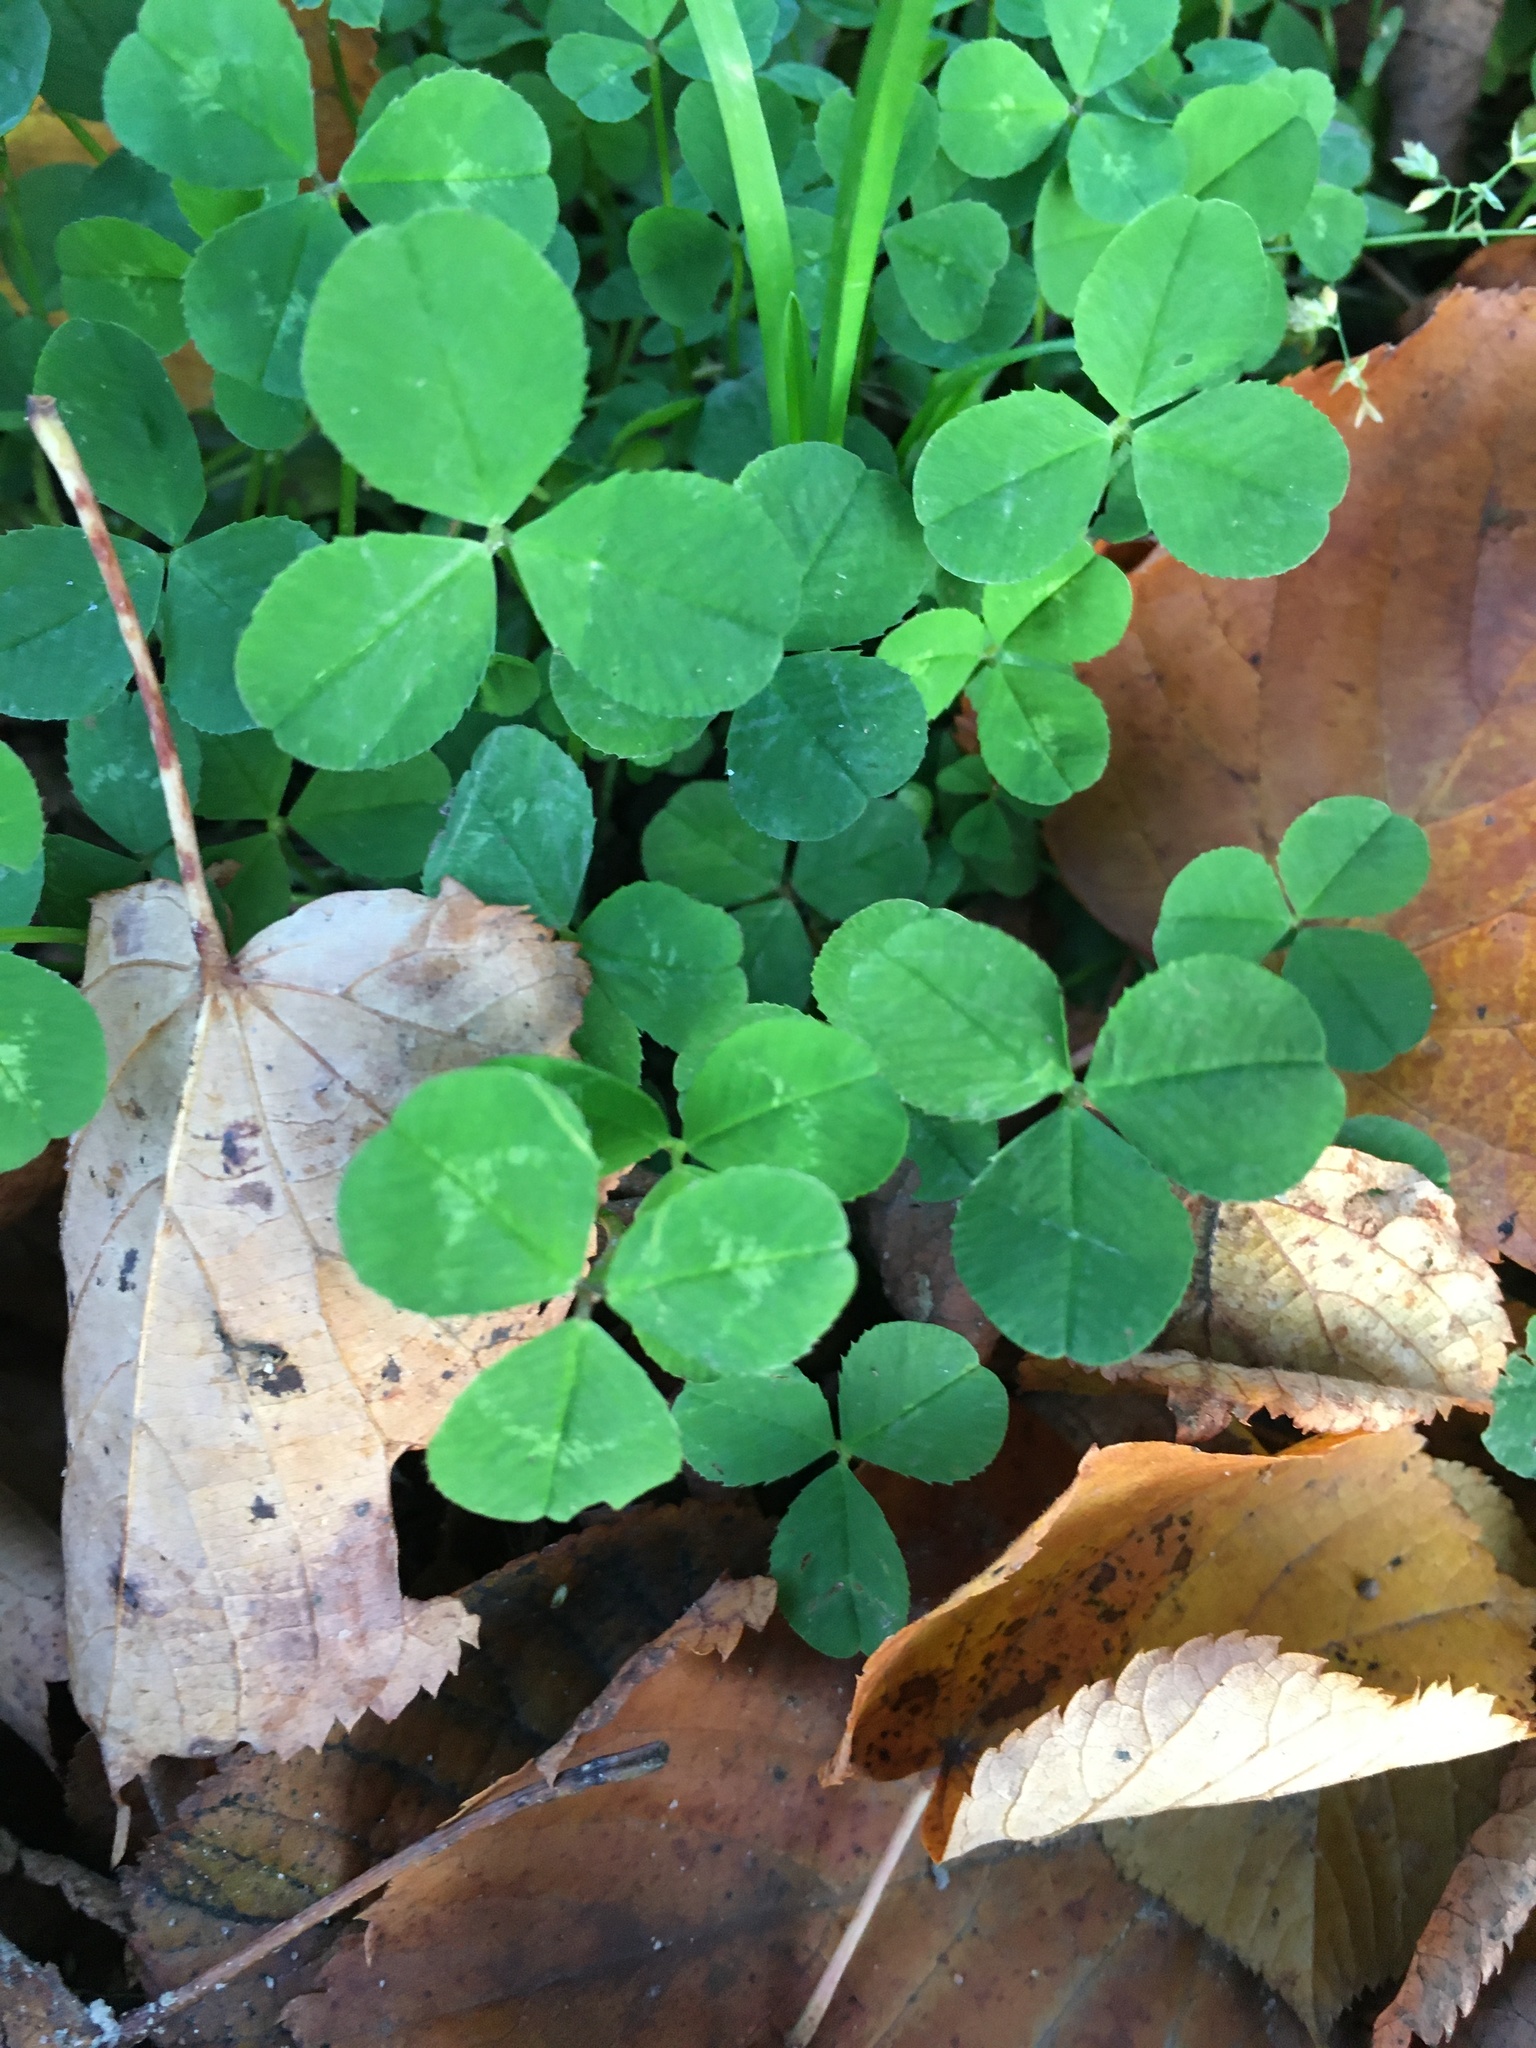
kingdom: Plantae
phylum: Tracheophyta
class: Magnoliopsida
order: Fabales
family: Fabaceae
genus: Trifolium
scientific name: Trifolium repens
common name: White clover
